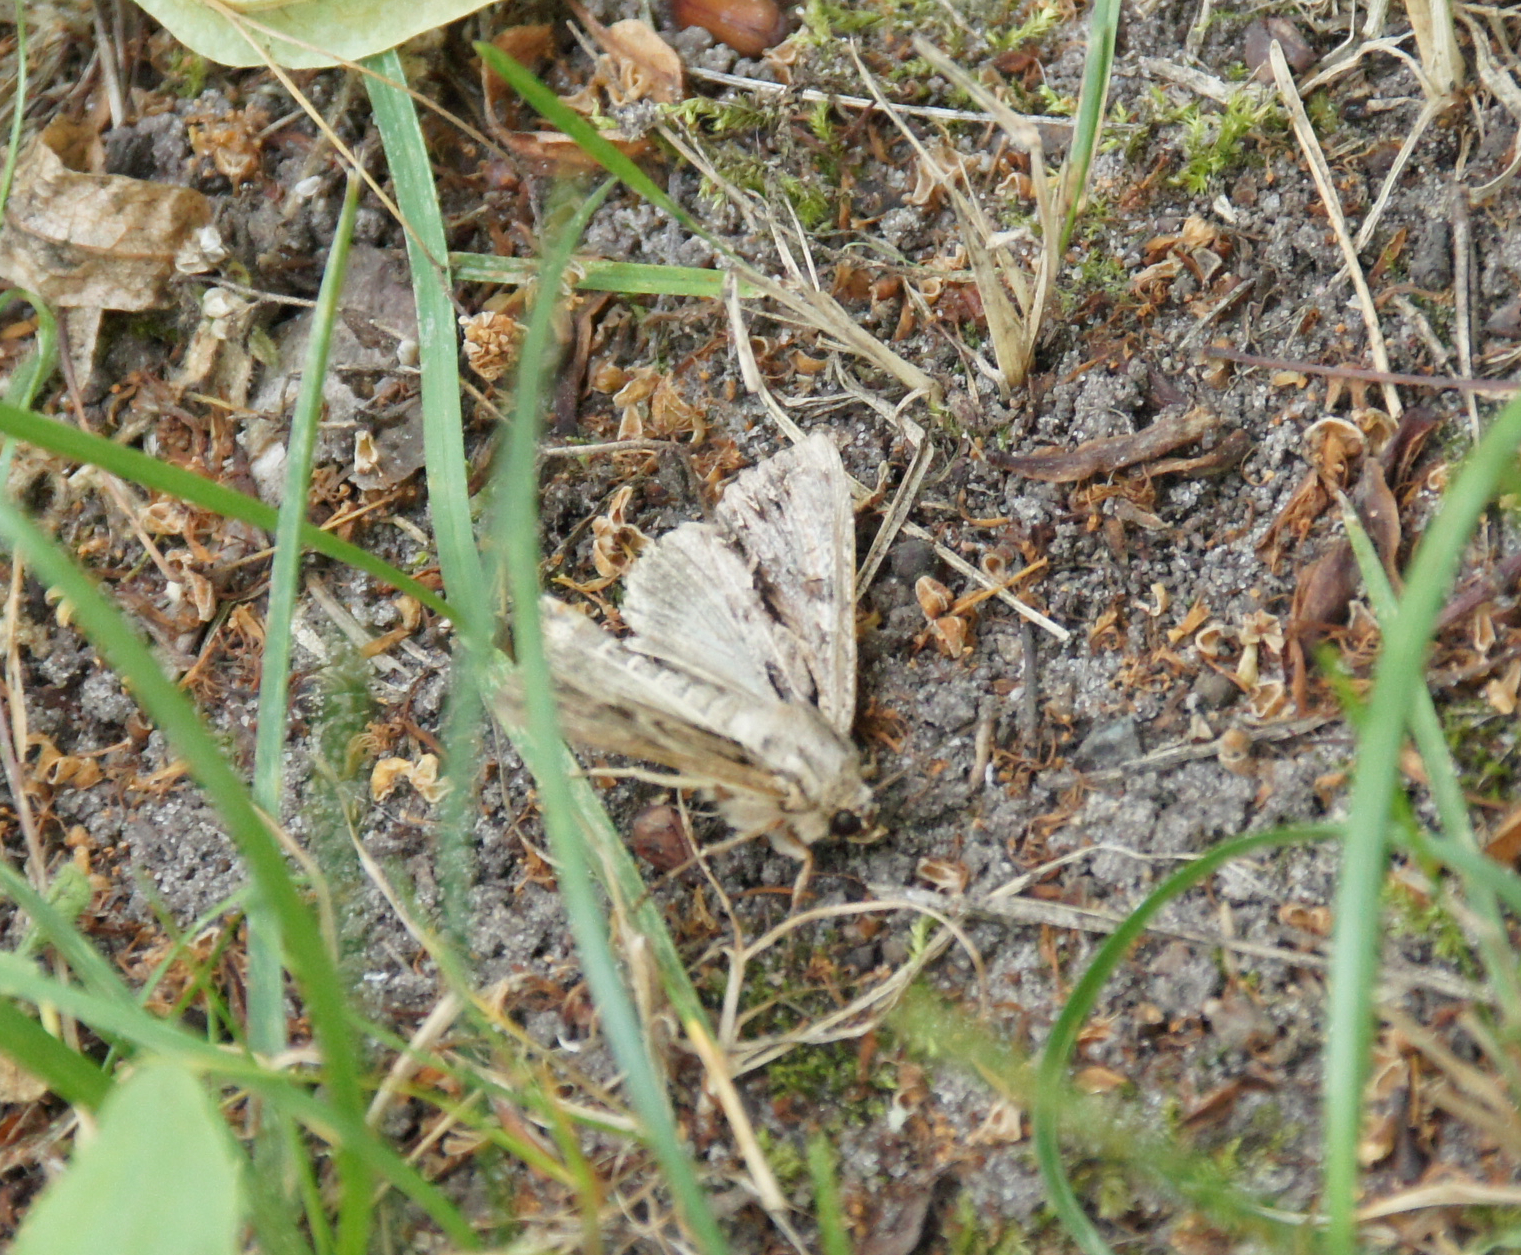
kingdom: Animalia
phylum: Arthropoda
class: Insecta
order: Lepidoptera
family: Noctuidae
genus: Apamea
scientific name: Apamea monoglypha
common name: Dark arches
